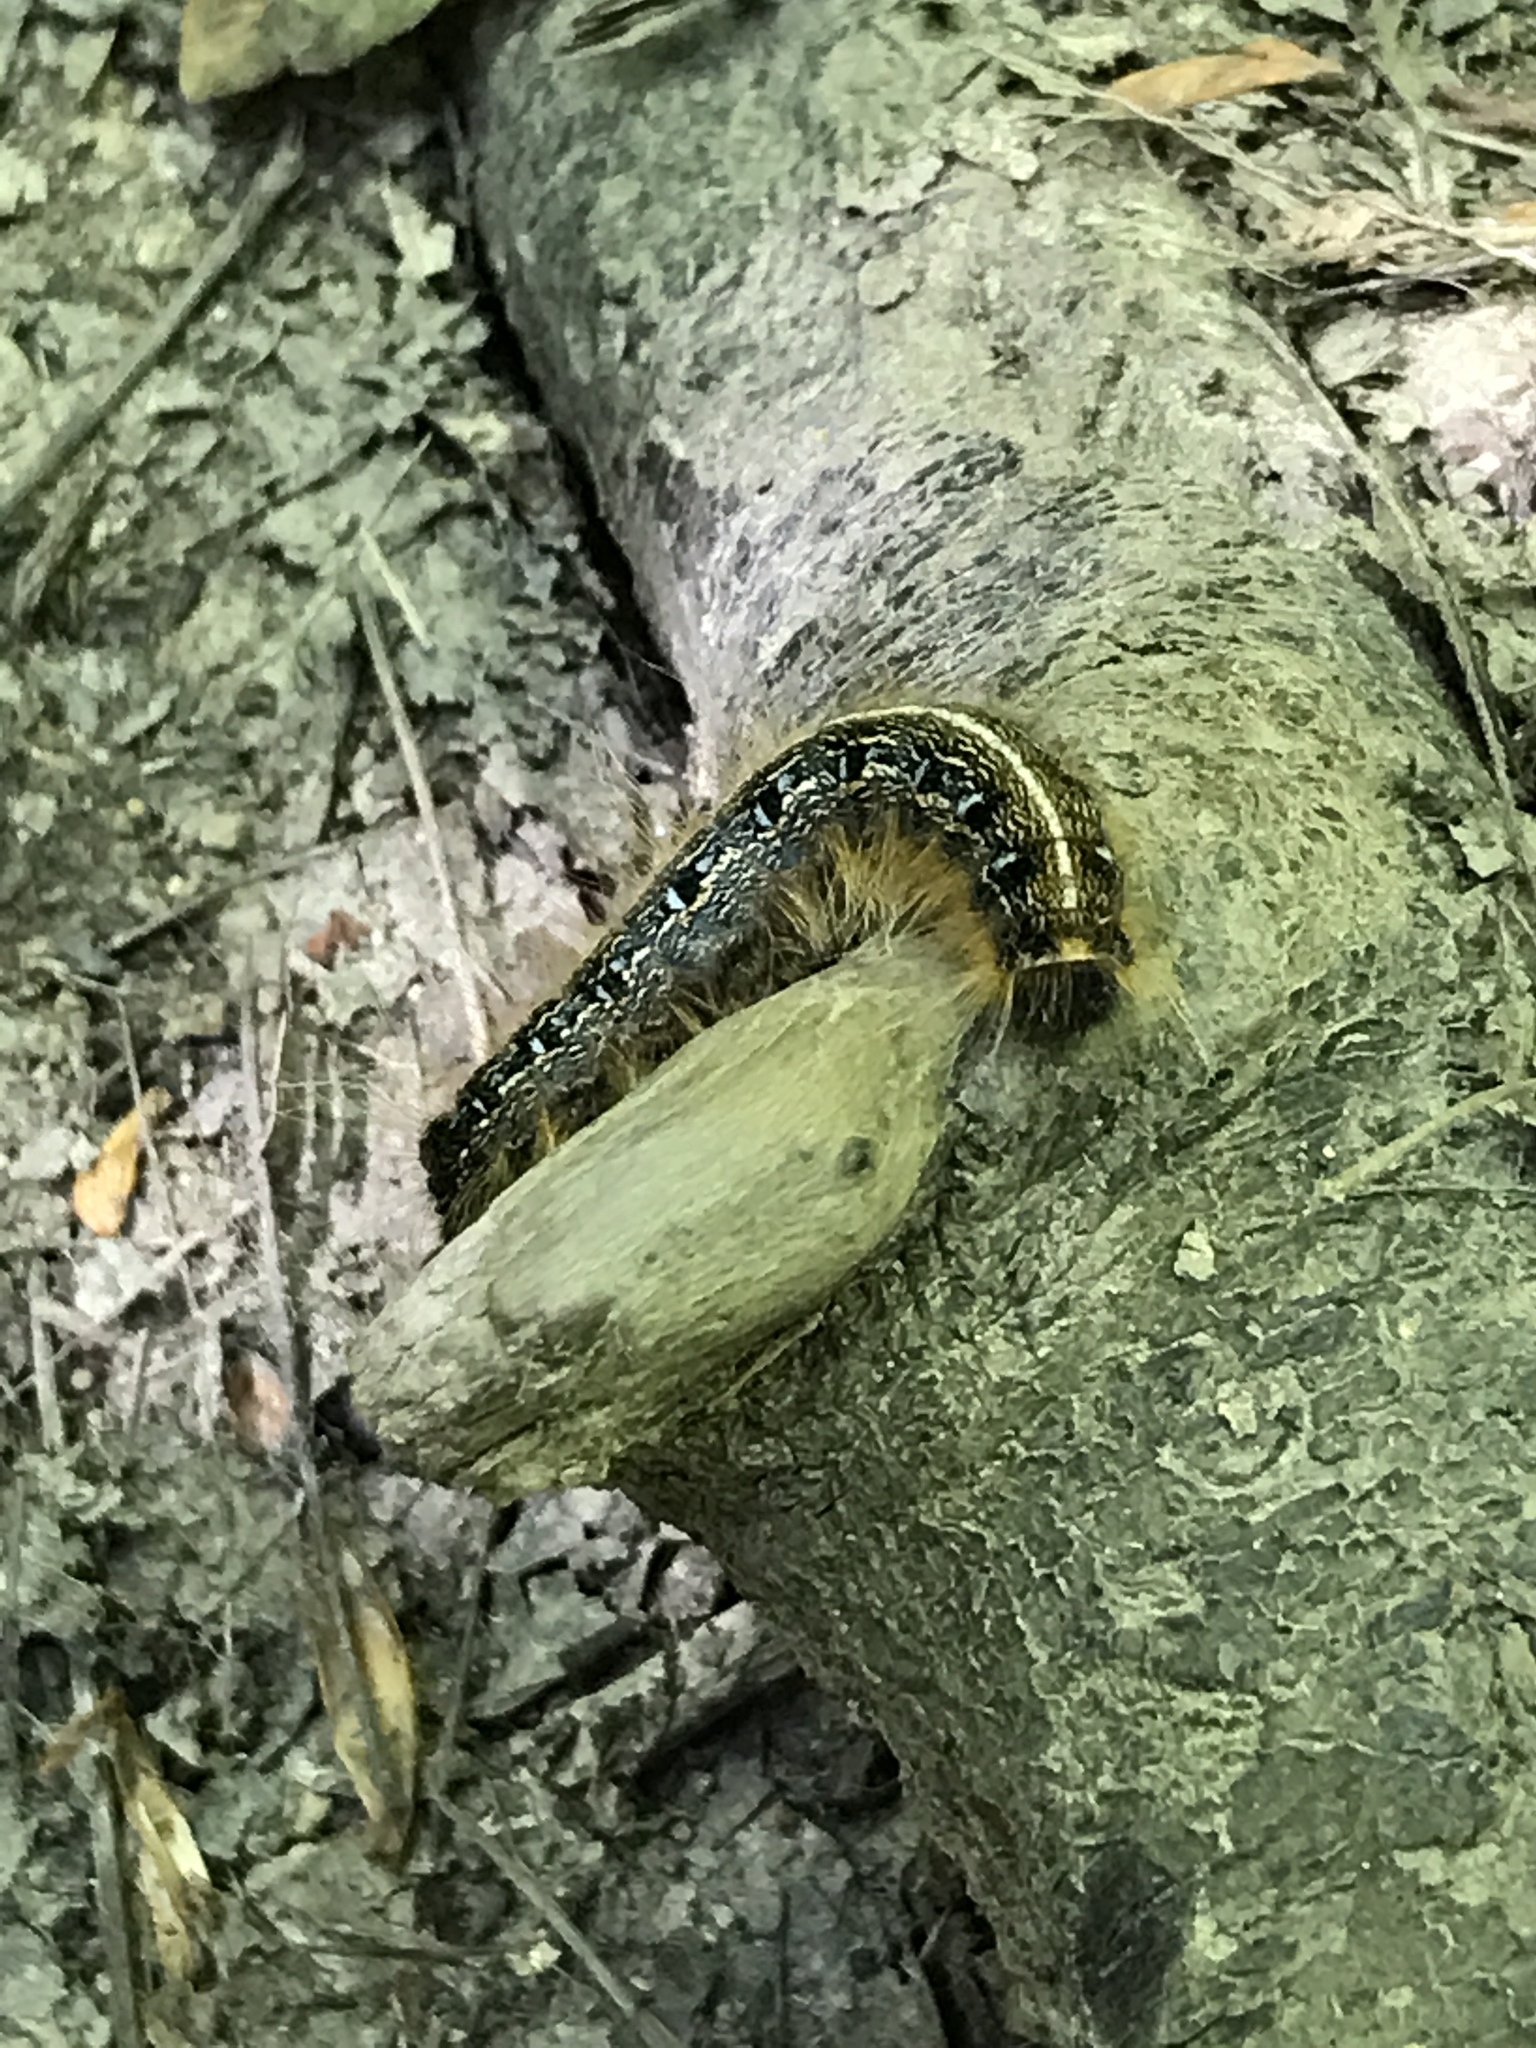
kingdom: Animalia
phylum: Arthropoda
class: Insecta
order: Lepidoptera
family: Lasiocampidae
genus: Malacosoma
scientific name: Malacosoma americana
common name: Eastern tent caterpillar moth
